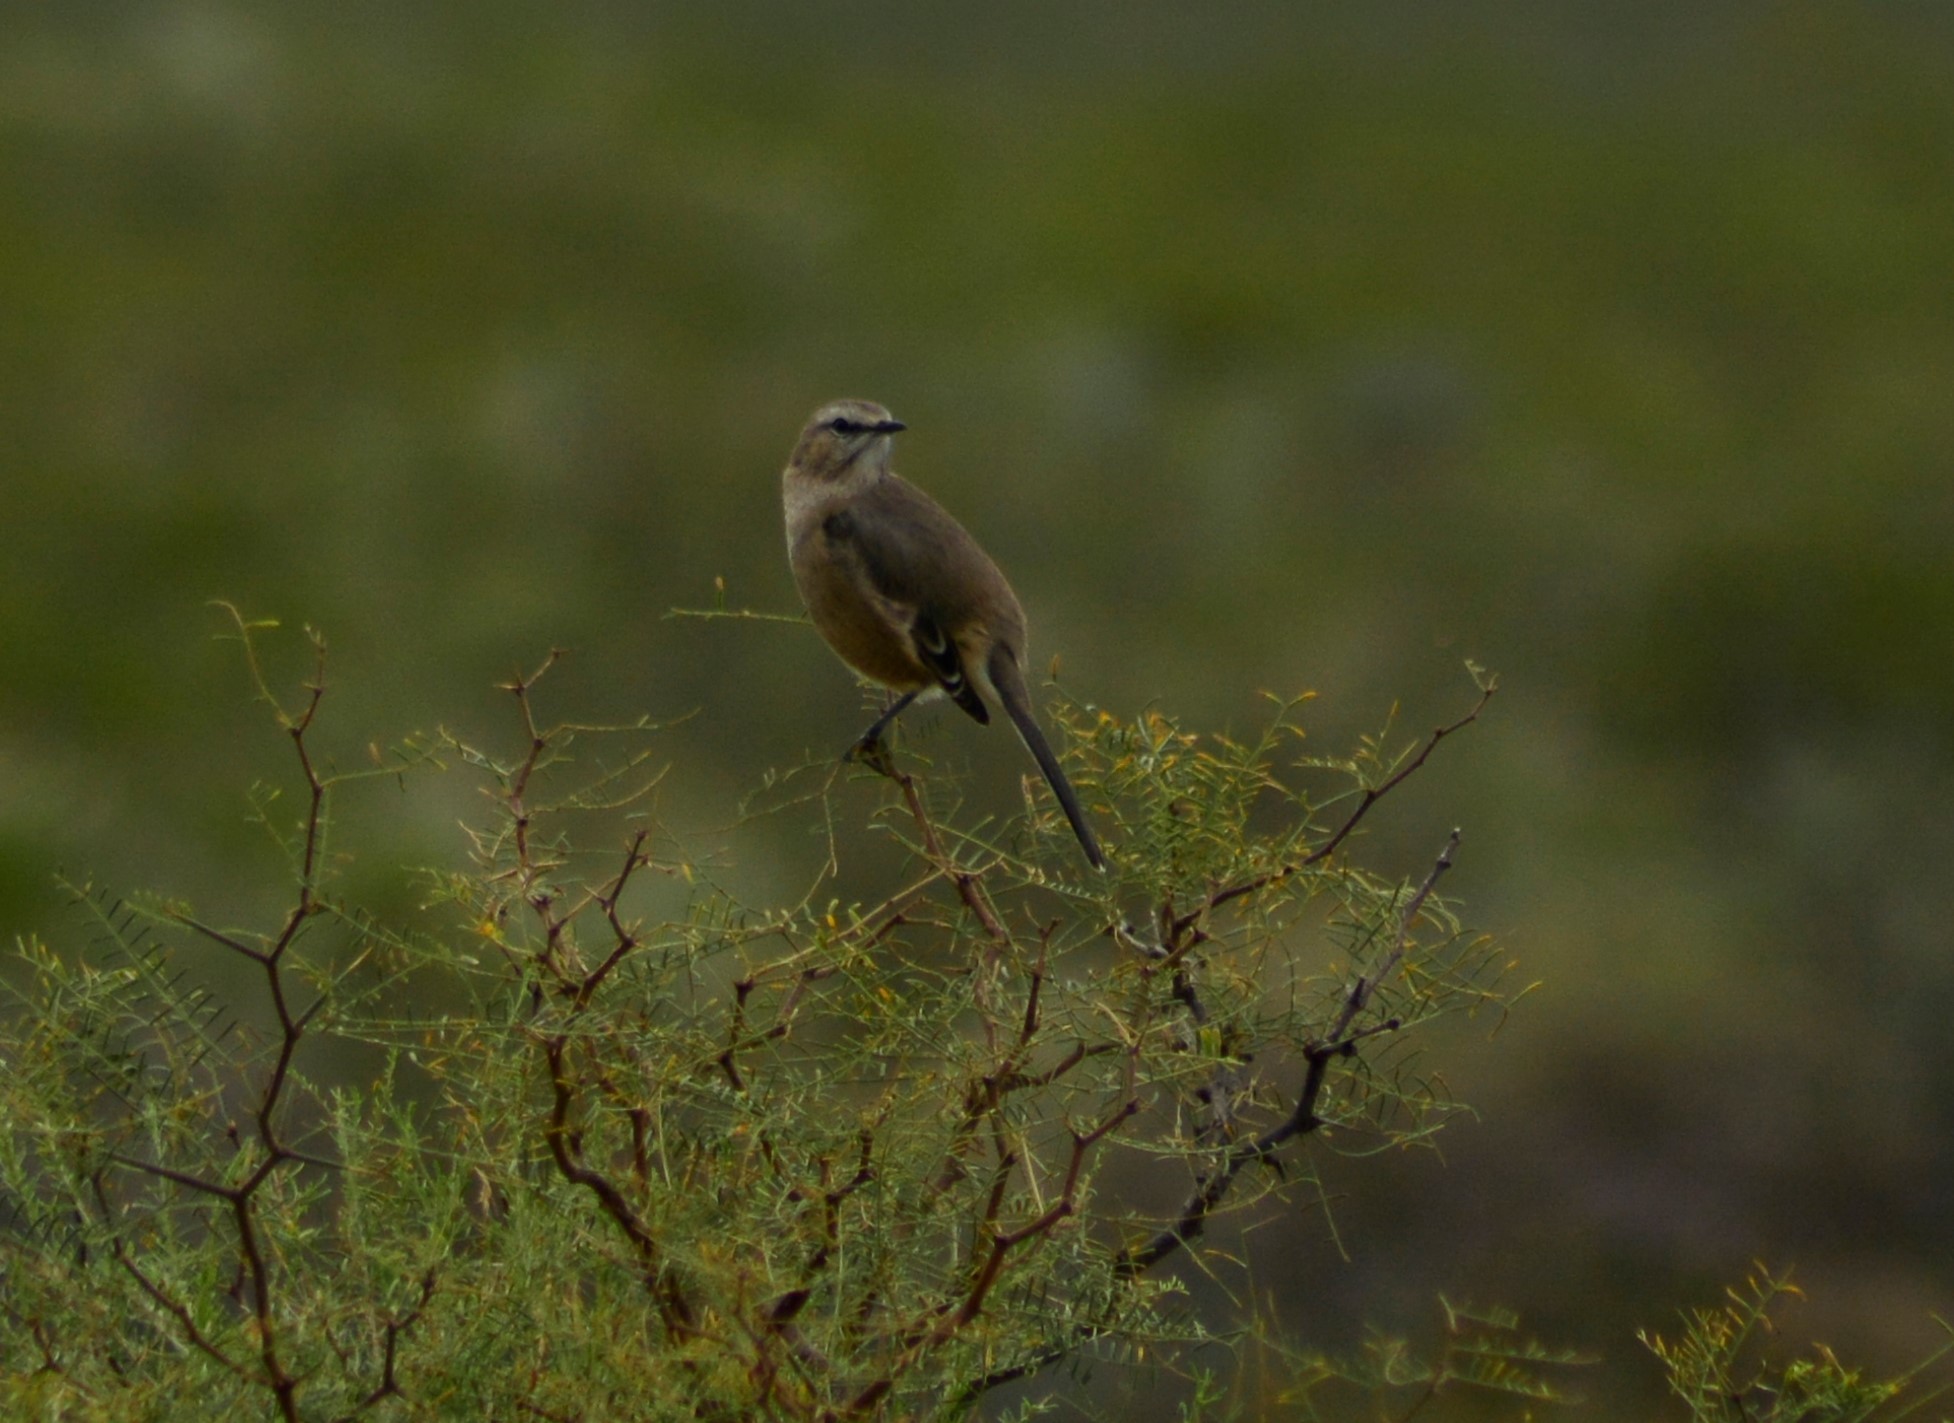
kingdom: Animalia
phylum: Chordata
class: Aves
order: Passeriformes
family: Mimidae
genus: Mimus
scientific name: Mimus patagonicus
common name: Patagonian mockingbird
